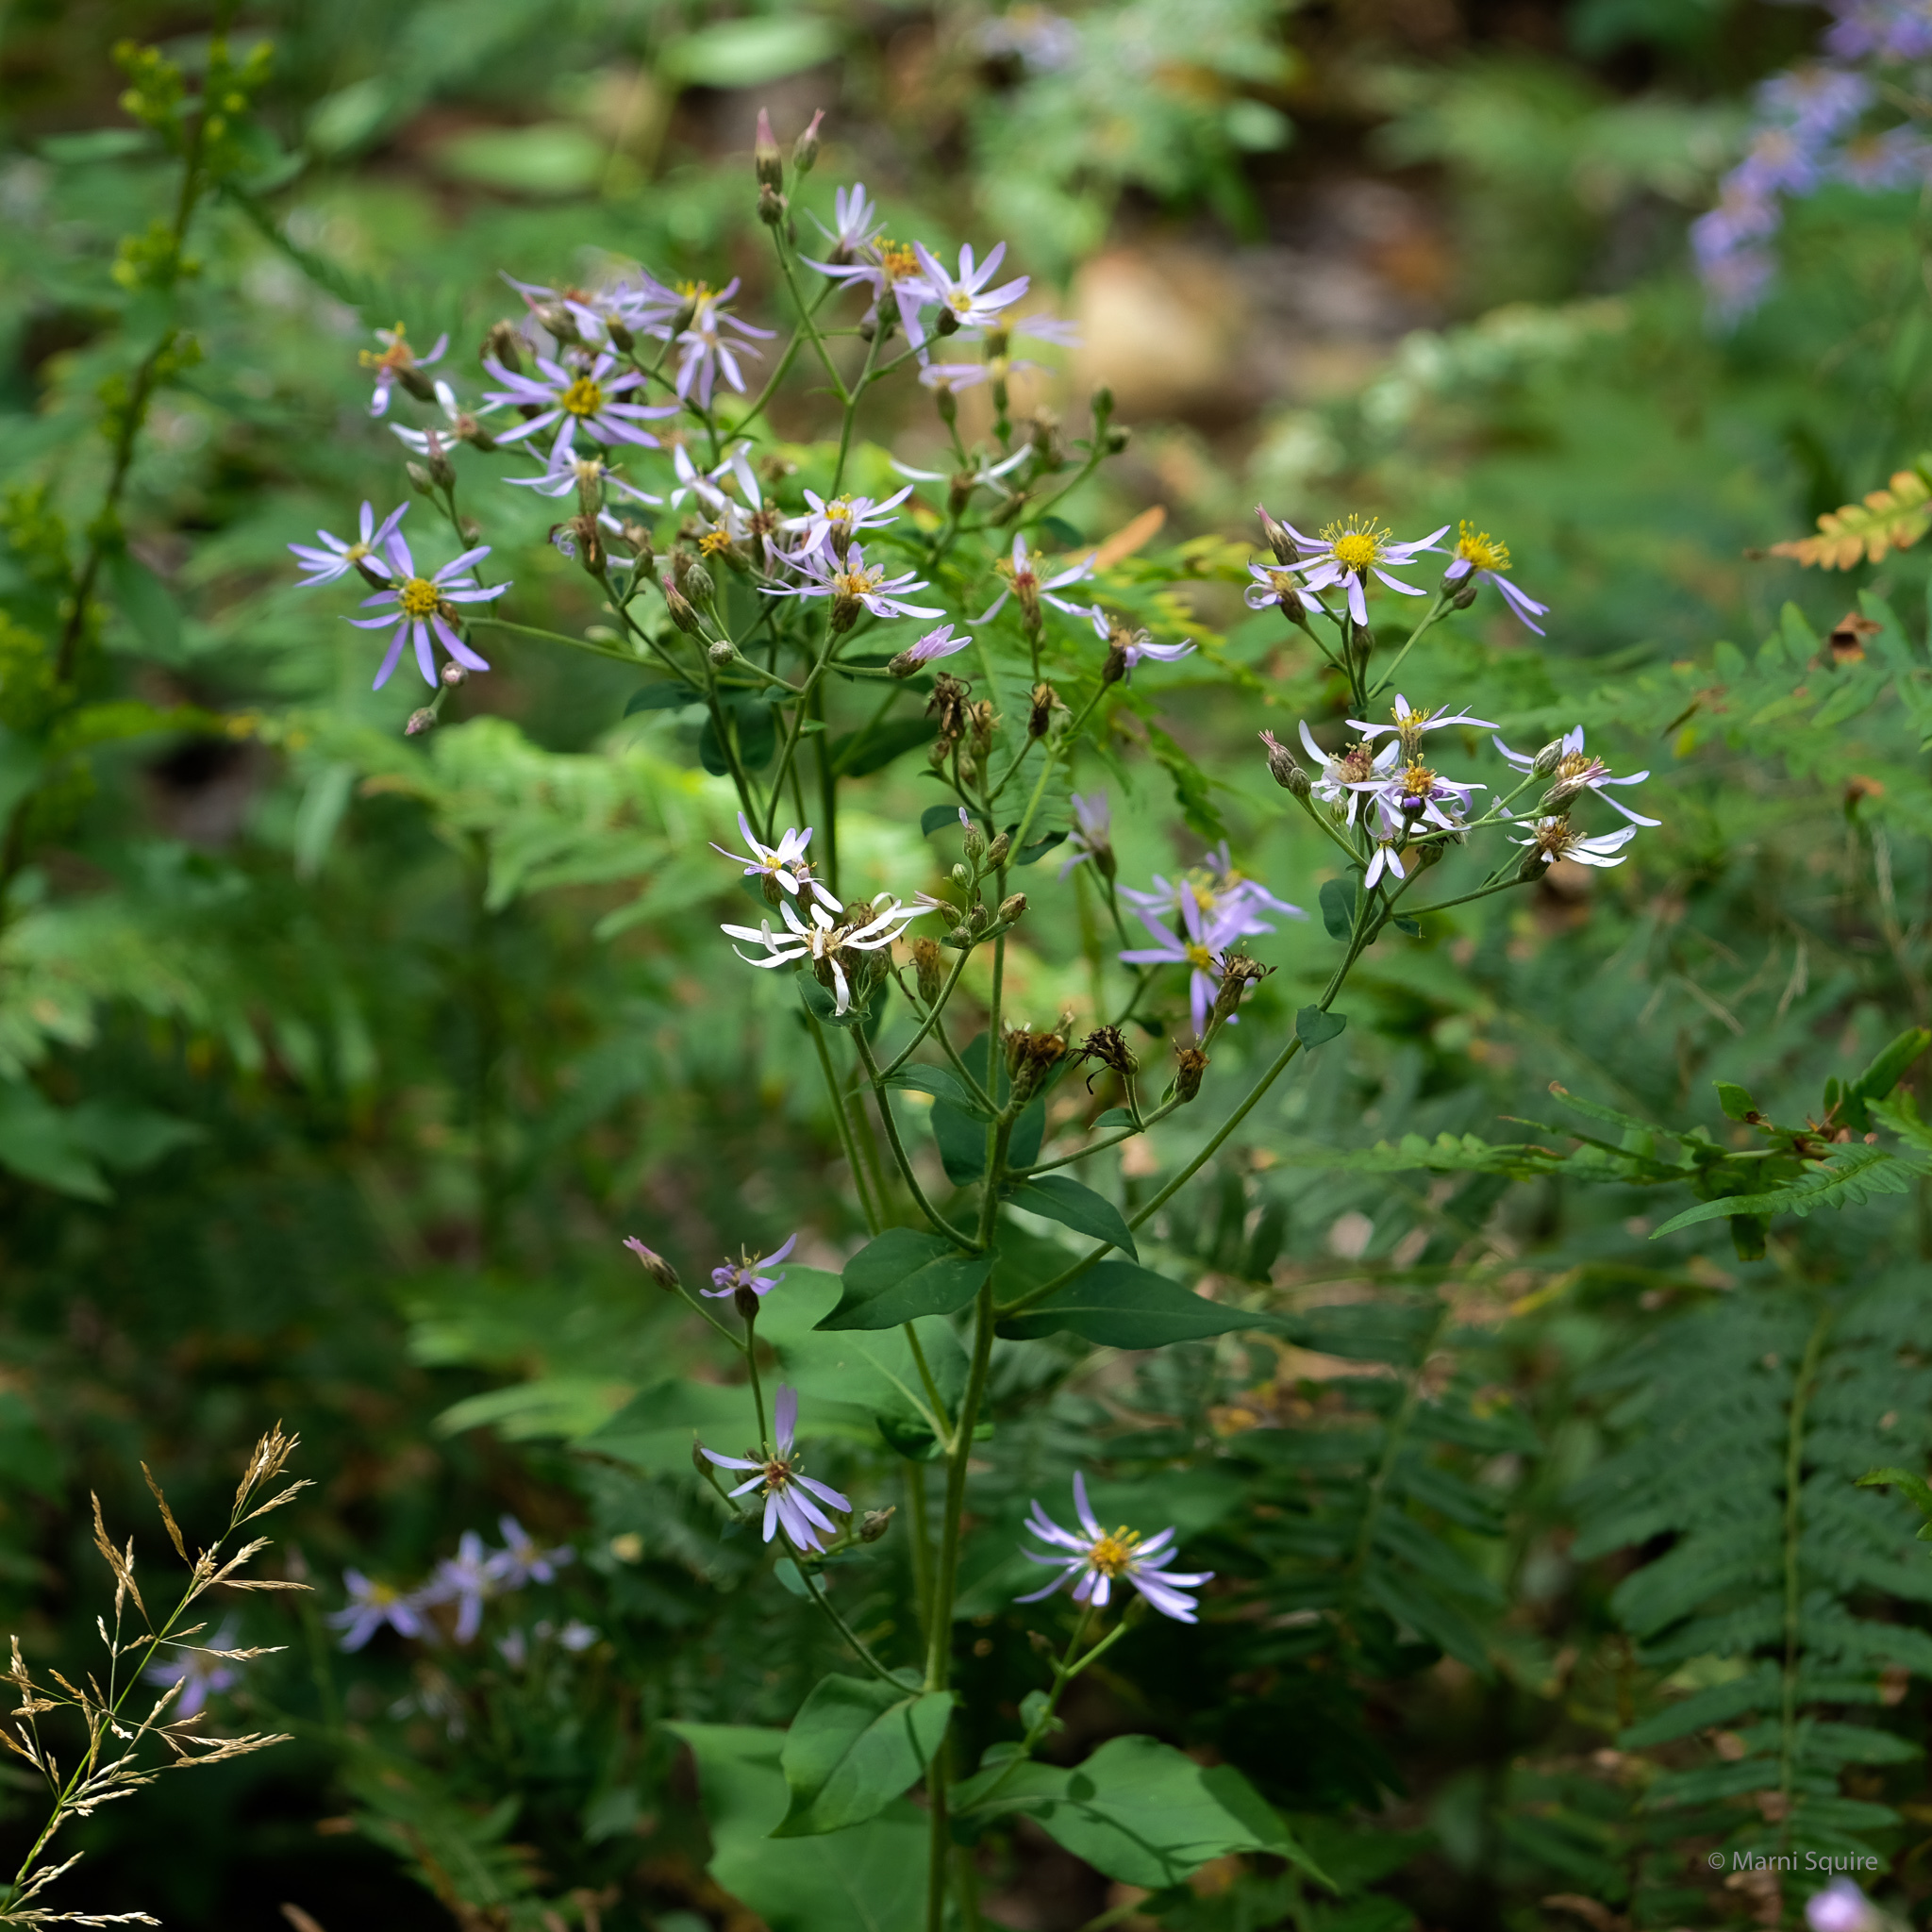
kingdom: Plantae
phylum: Tracheophyta
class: Magnoliopsida
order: Asterales
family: Asteraceae
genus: Eurybia
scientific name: Eurybia macrophylla
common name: Big-leaved aster
